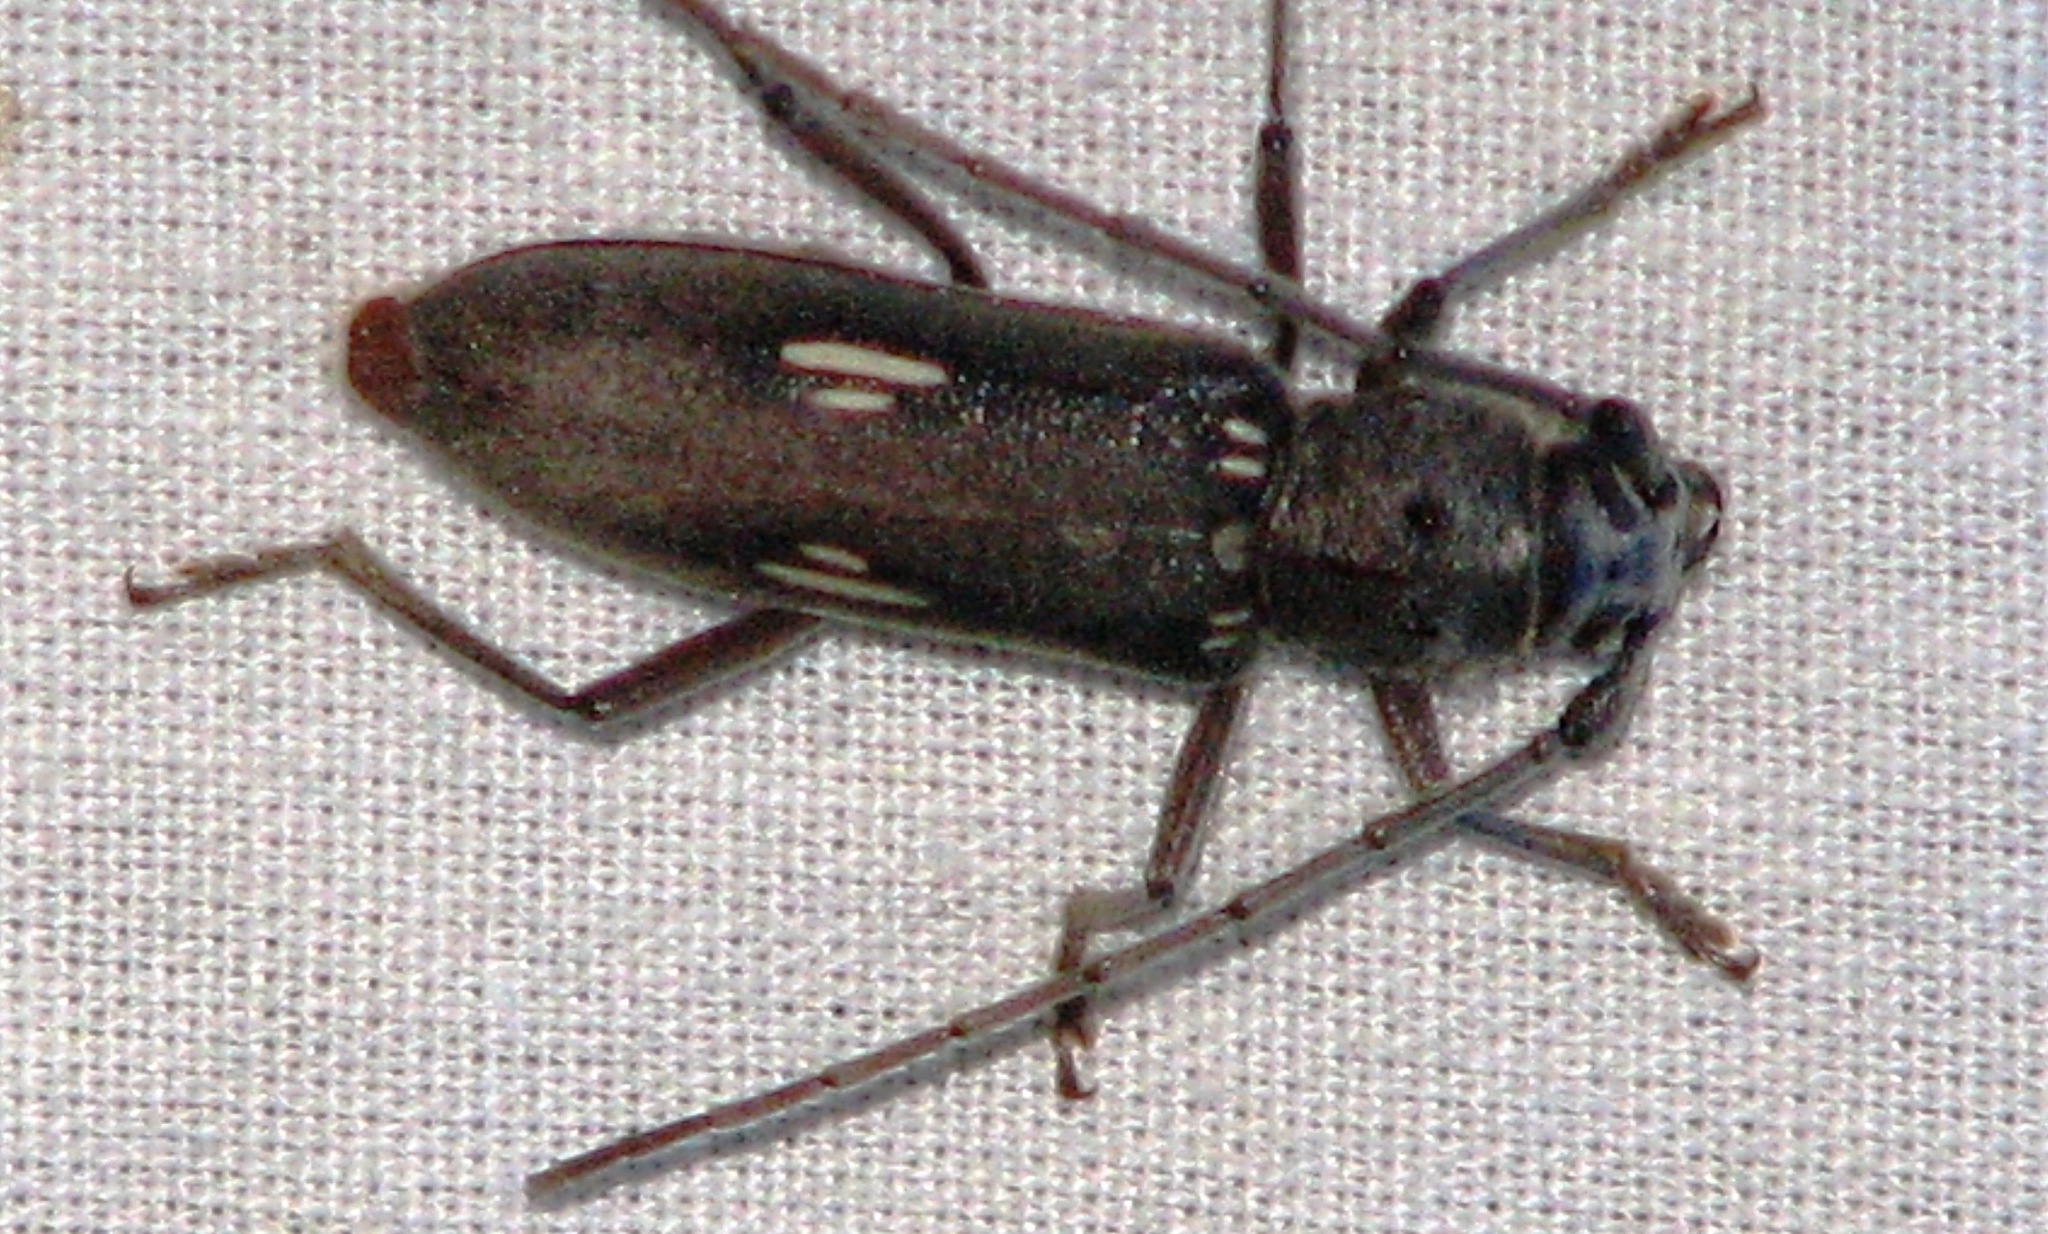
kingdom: Animalia
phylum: Arthropoda
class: Insecta
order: Coleoptera
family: Cerambycidae
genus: Eburia
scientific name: Eburia ovicollis
